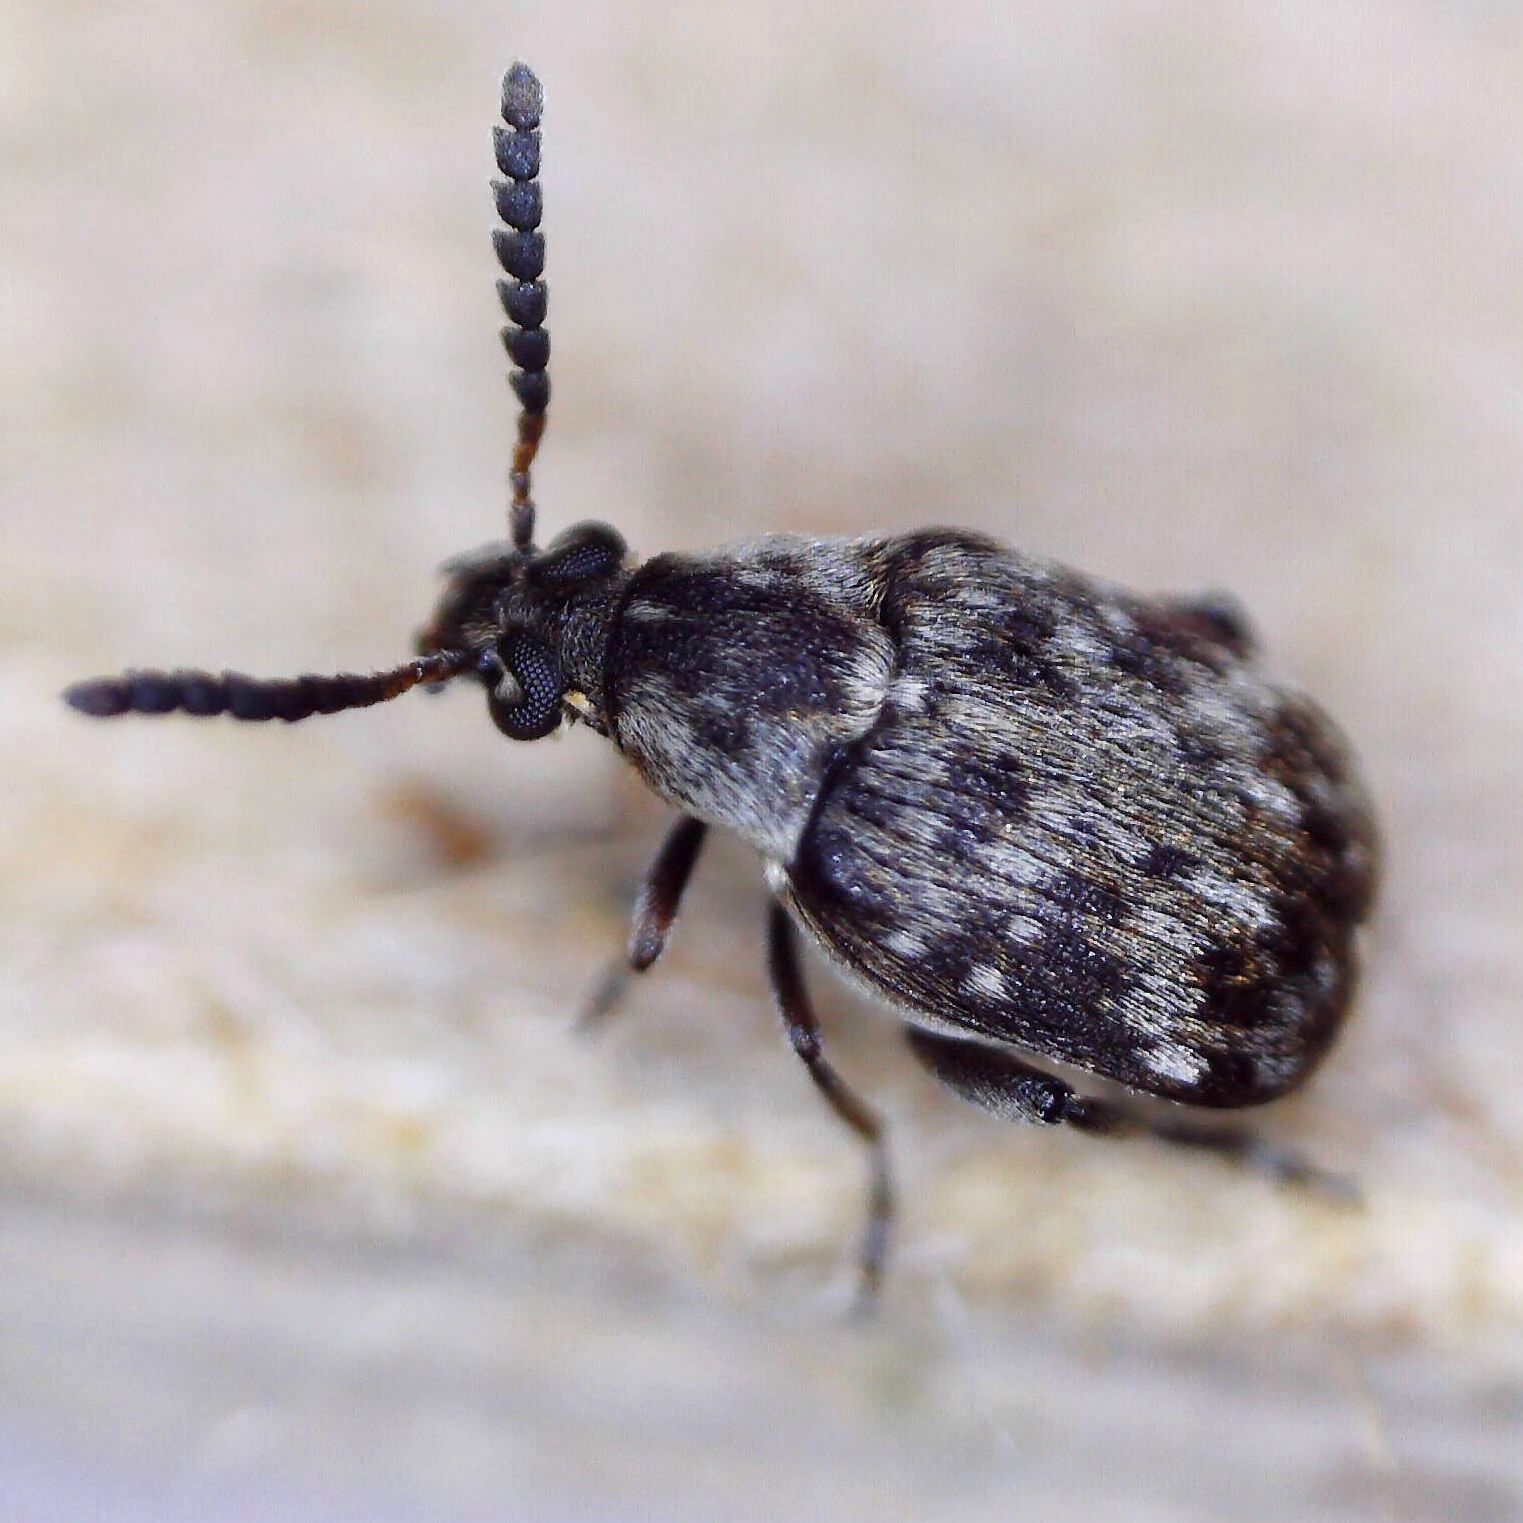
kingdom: Animalia
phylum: Arthropoda
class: Insecta
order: Coleoptera
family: Chrysomelidae
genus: Bruchidius
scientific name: Bruchidius varius
